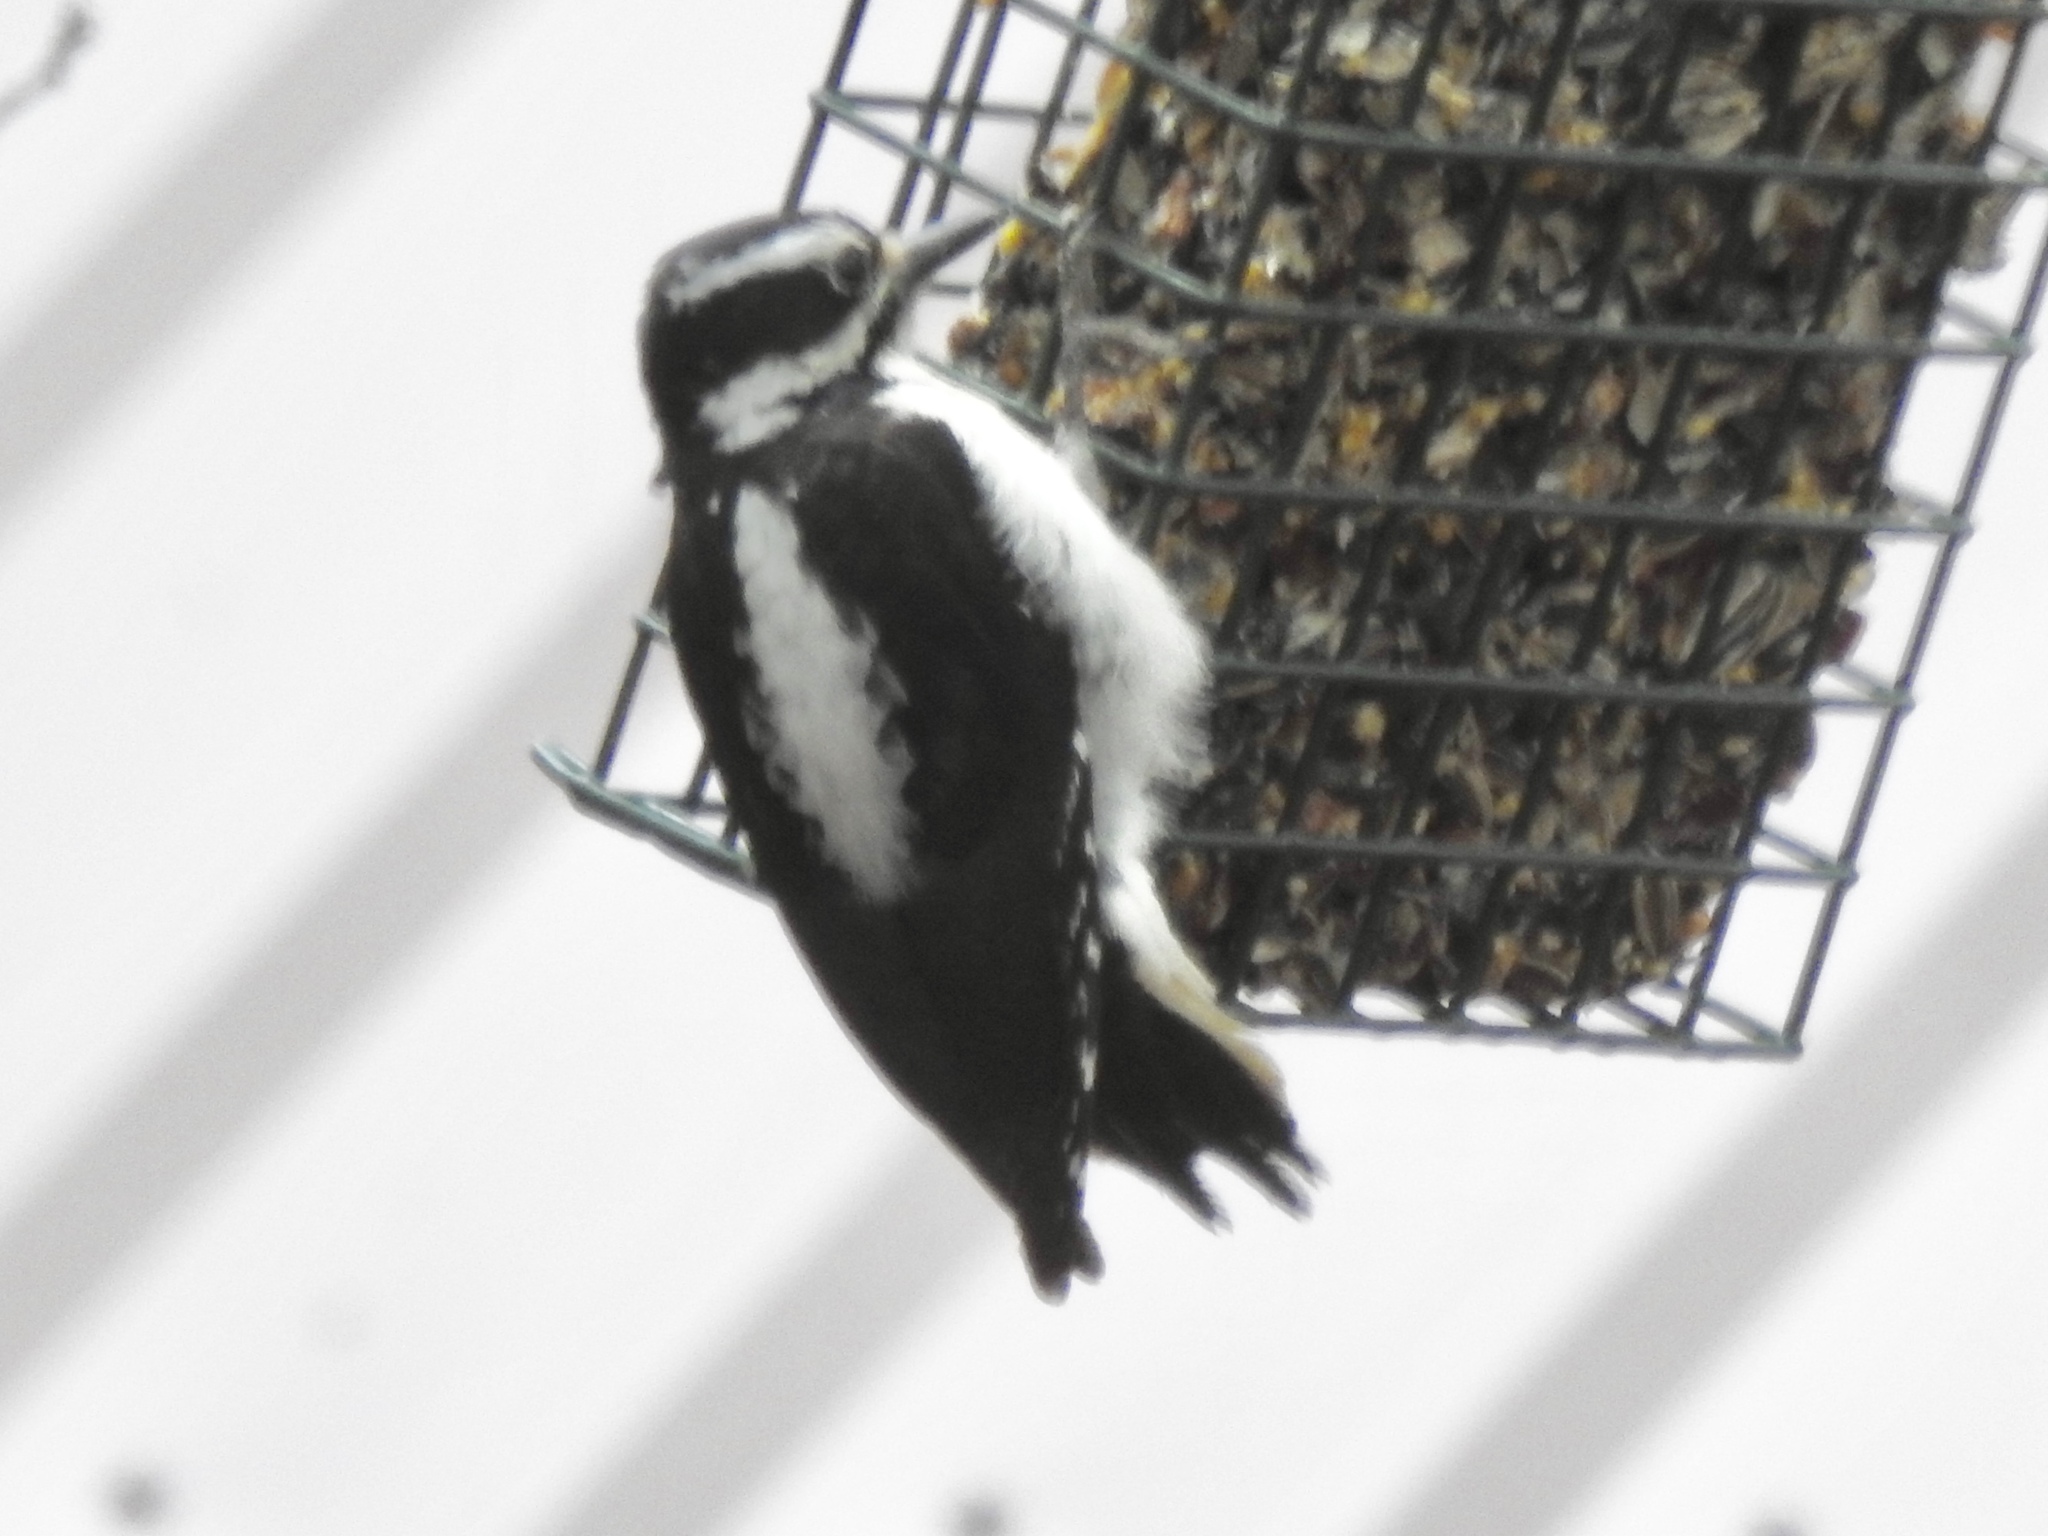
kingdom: Animalia
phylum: Chordata
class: Aves
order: Piciformes
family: Picidae
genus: Leuconotopicus
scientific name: Leuconotopicus villosus
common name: Hairy woodpecker
